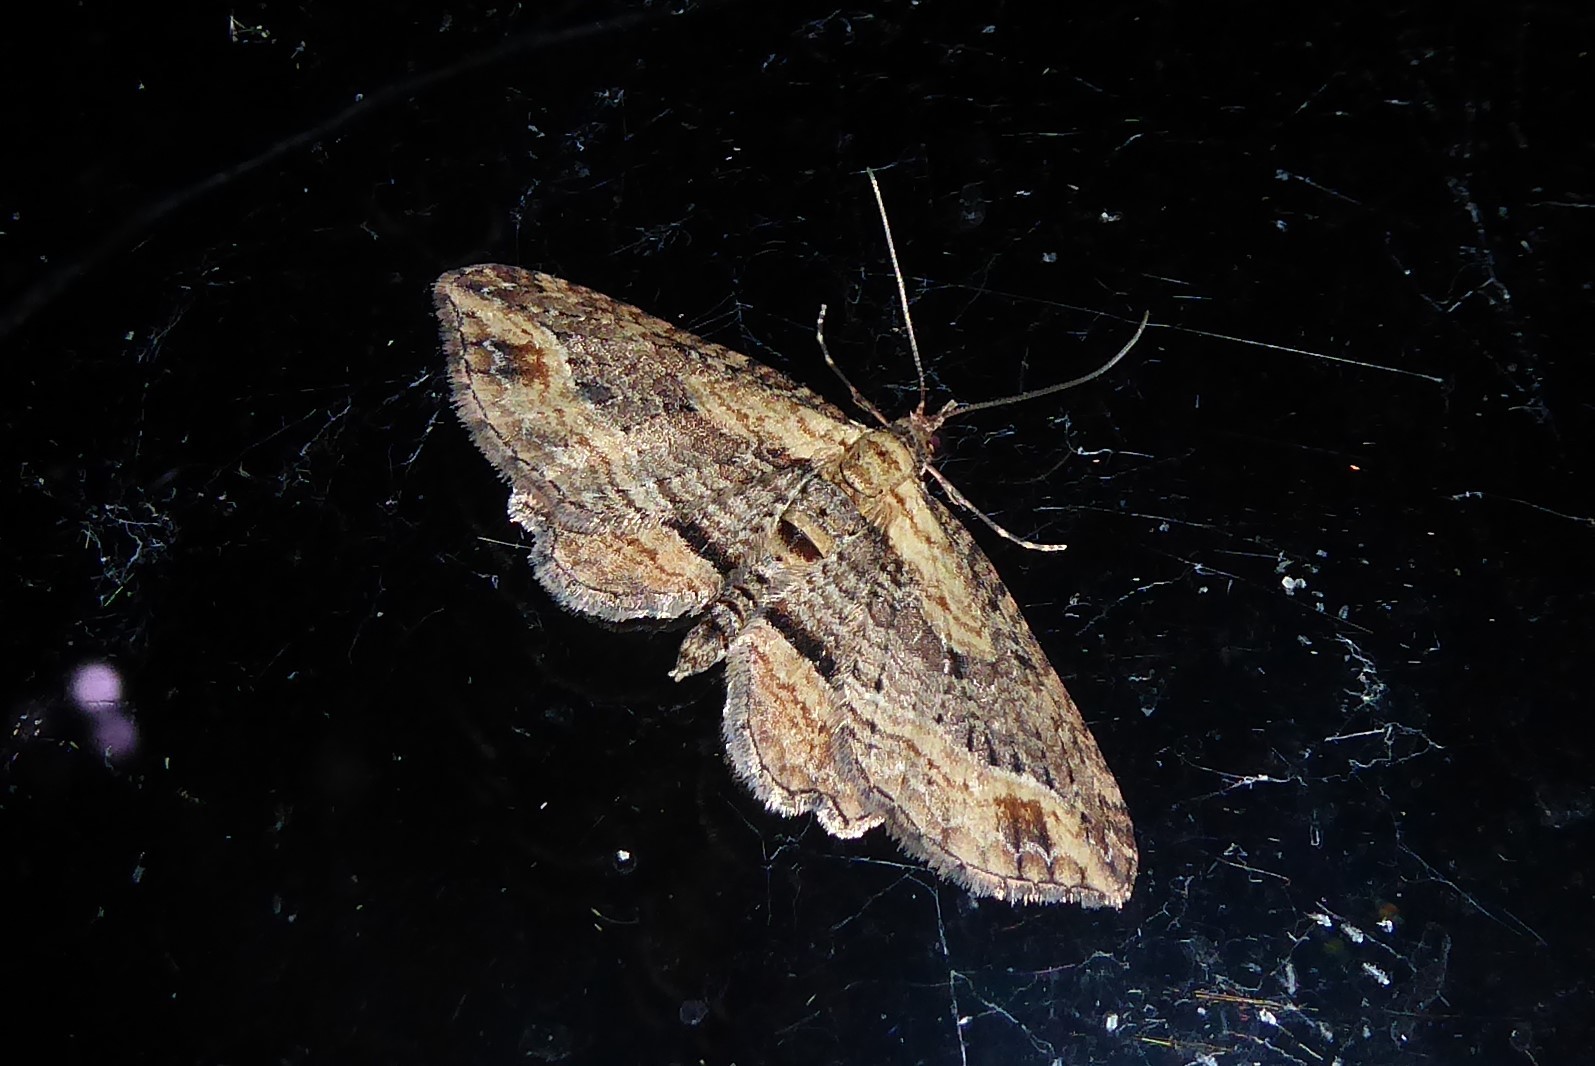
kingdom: Animalia
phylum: Arthropoda
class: Insecta
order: Lepidoptera
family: Geometridae
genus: Chloroclystis
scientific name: Chloroclystis filata
